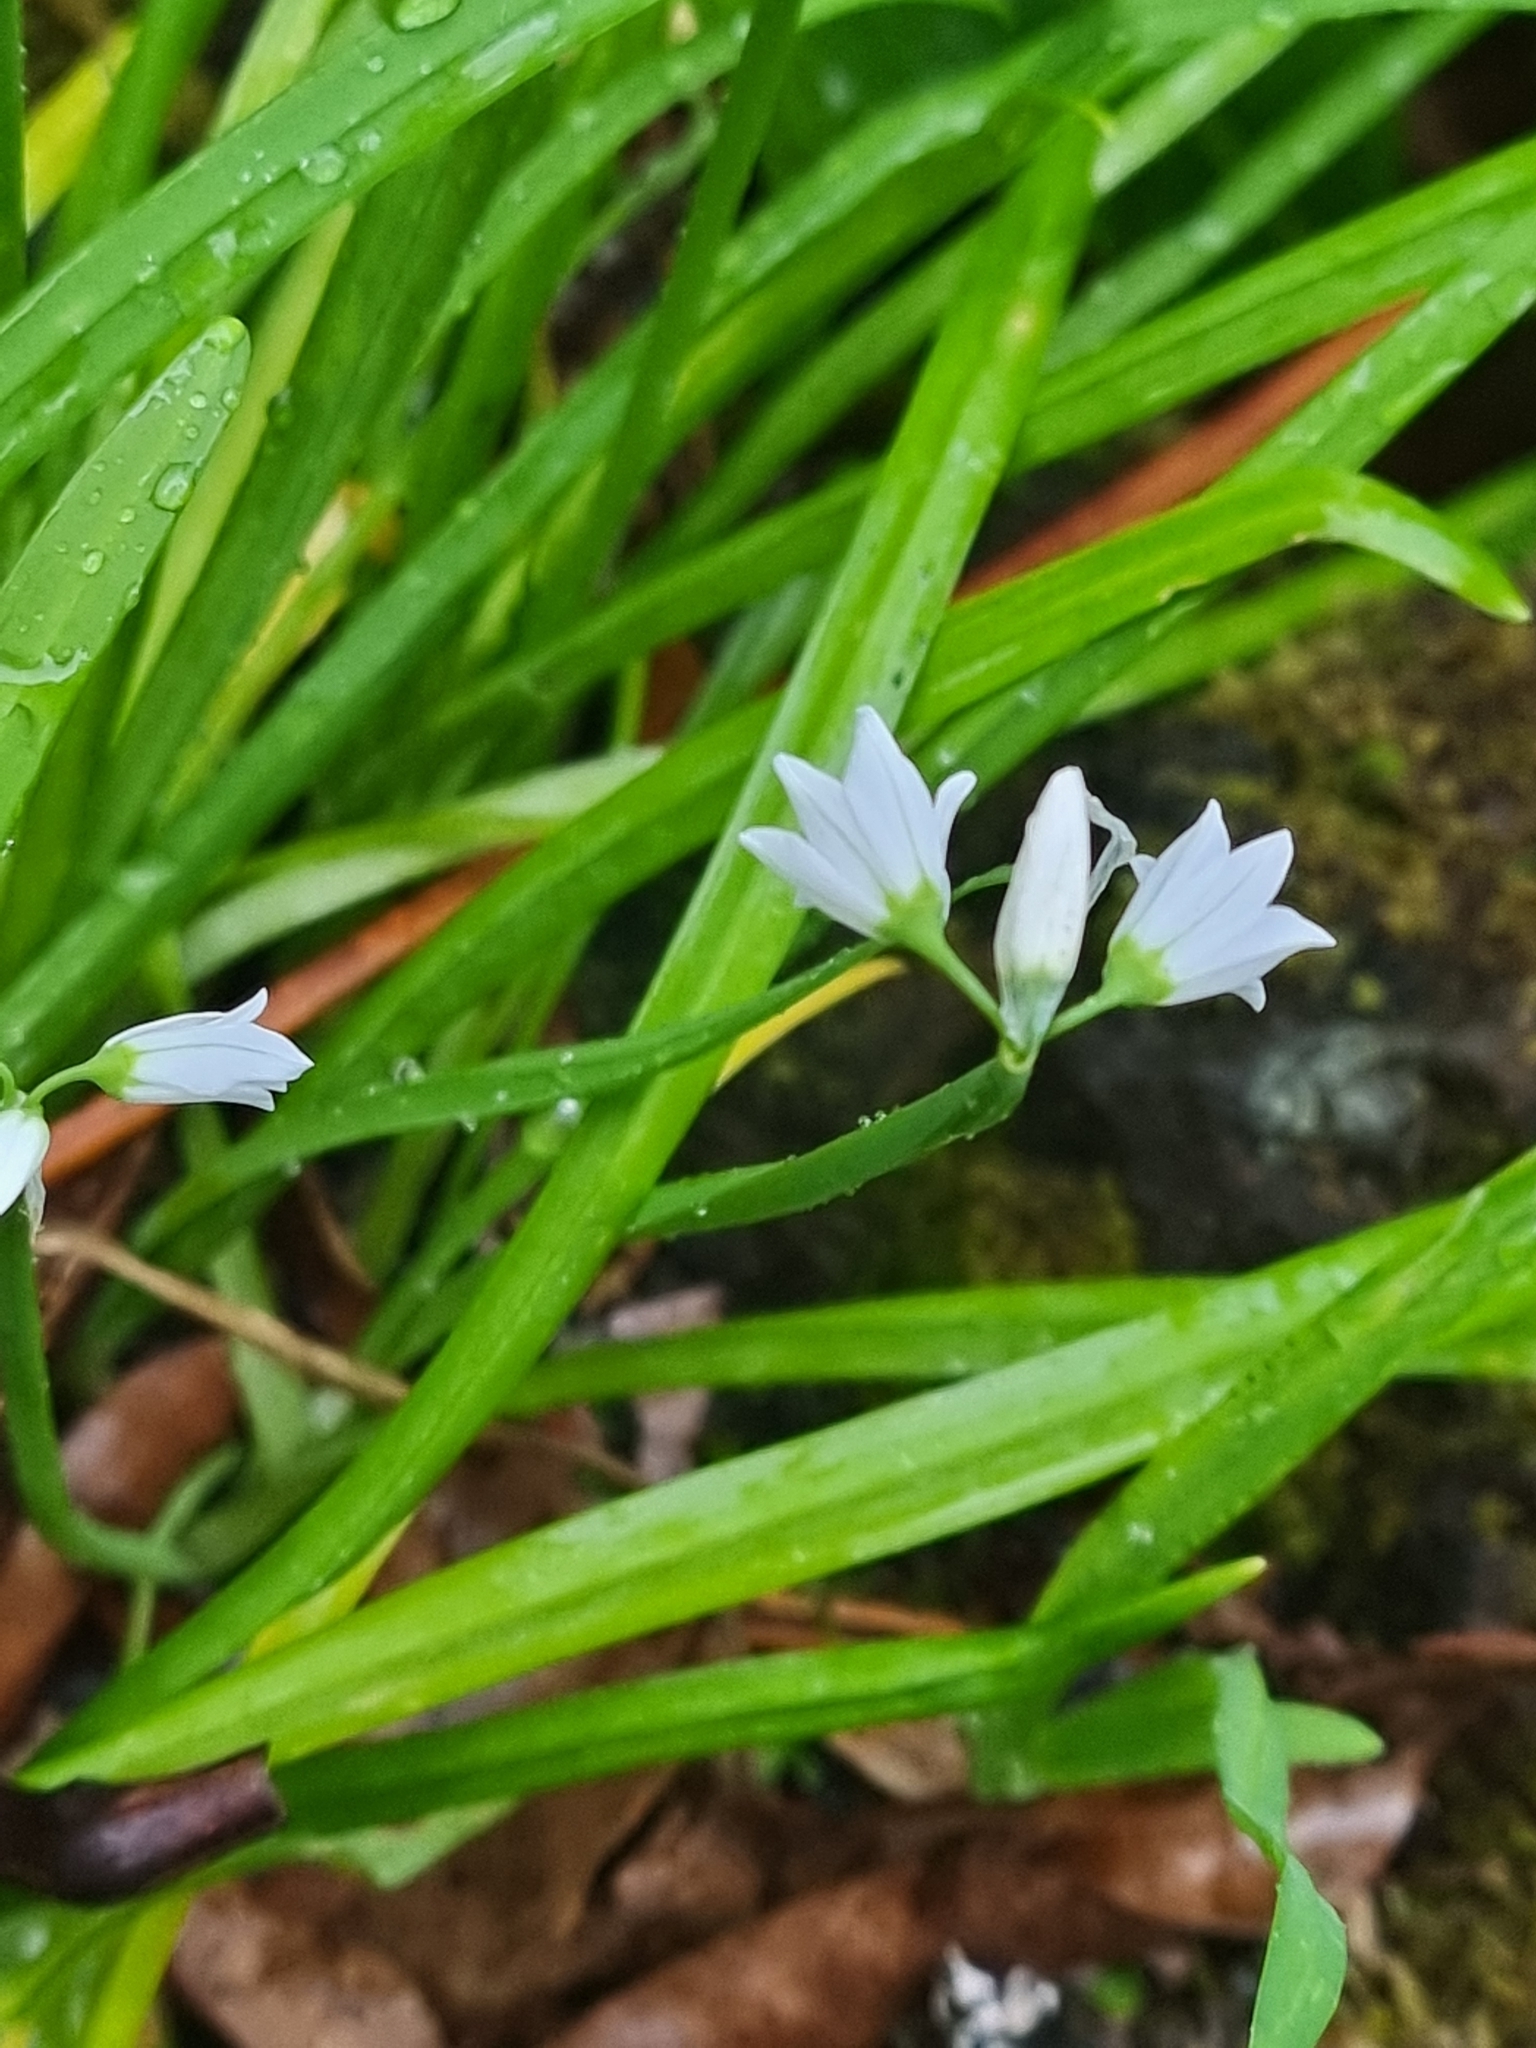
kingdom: Plantae
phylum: Tracheophyta
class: Liliopsida
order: Asparagales
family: Amaryllidaceae
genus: Allium
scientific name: Allium triquetrum
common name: Three-cornered garlic
